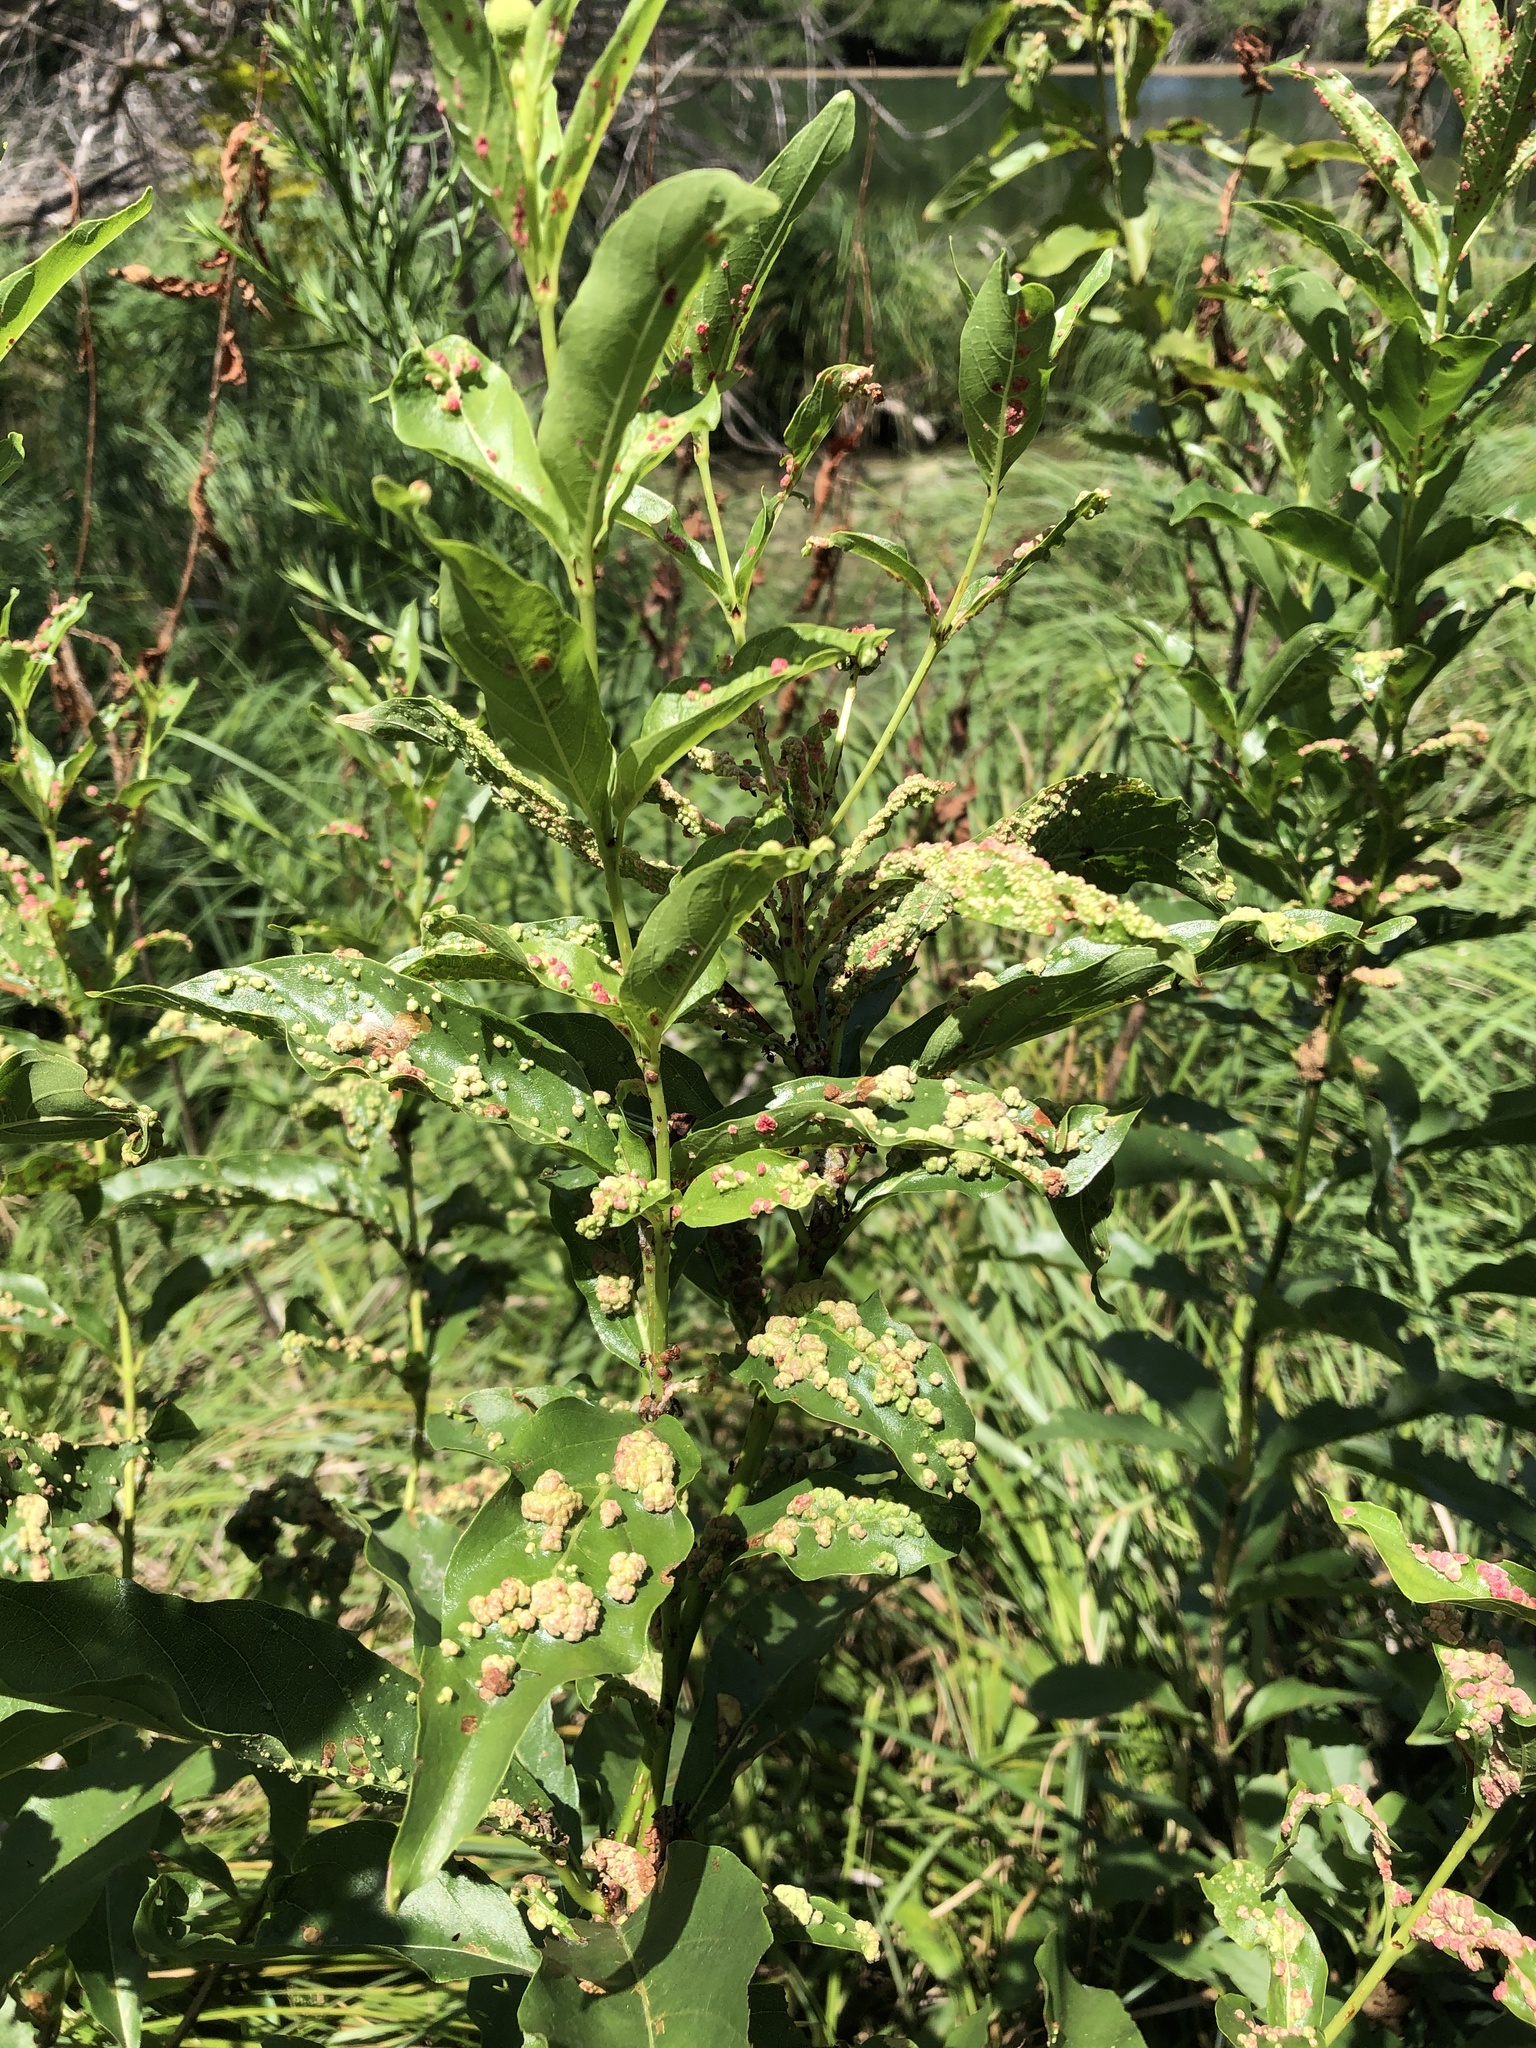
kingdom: Animalia
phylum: Arthropoda
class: Arachnida
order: Trombidiformes
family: Eriophyidae
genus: Aceria
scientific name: Aceria
